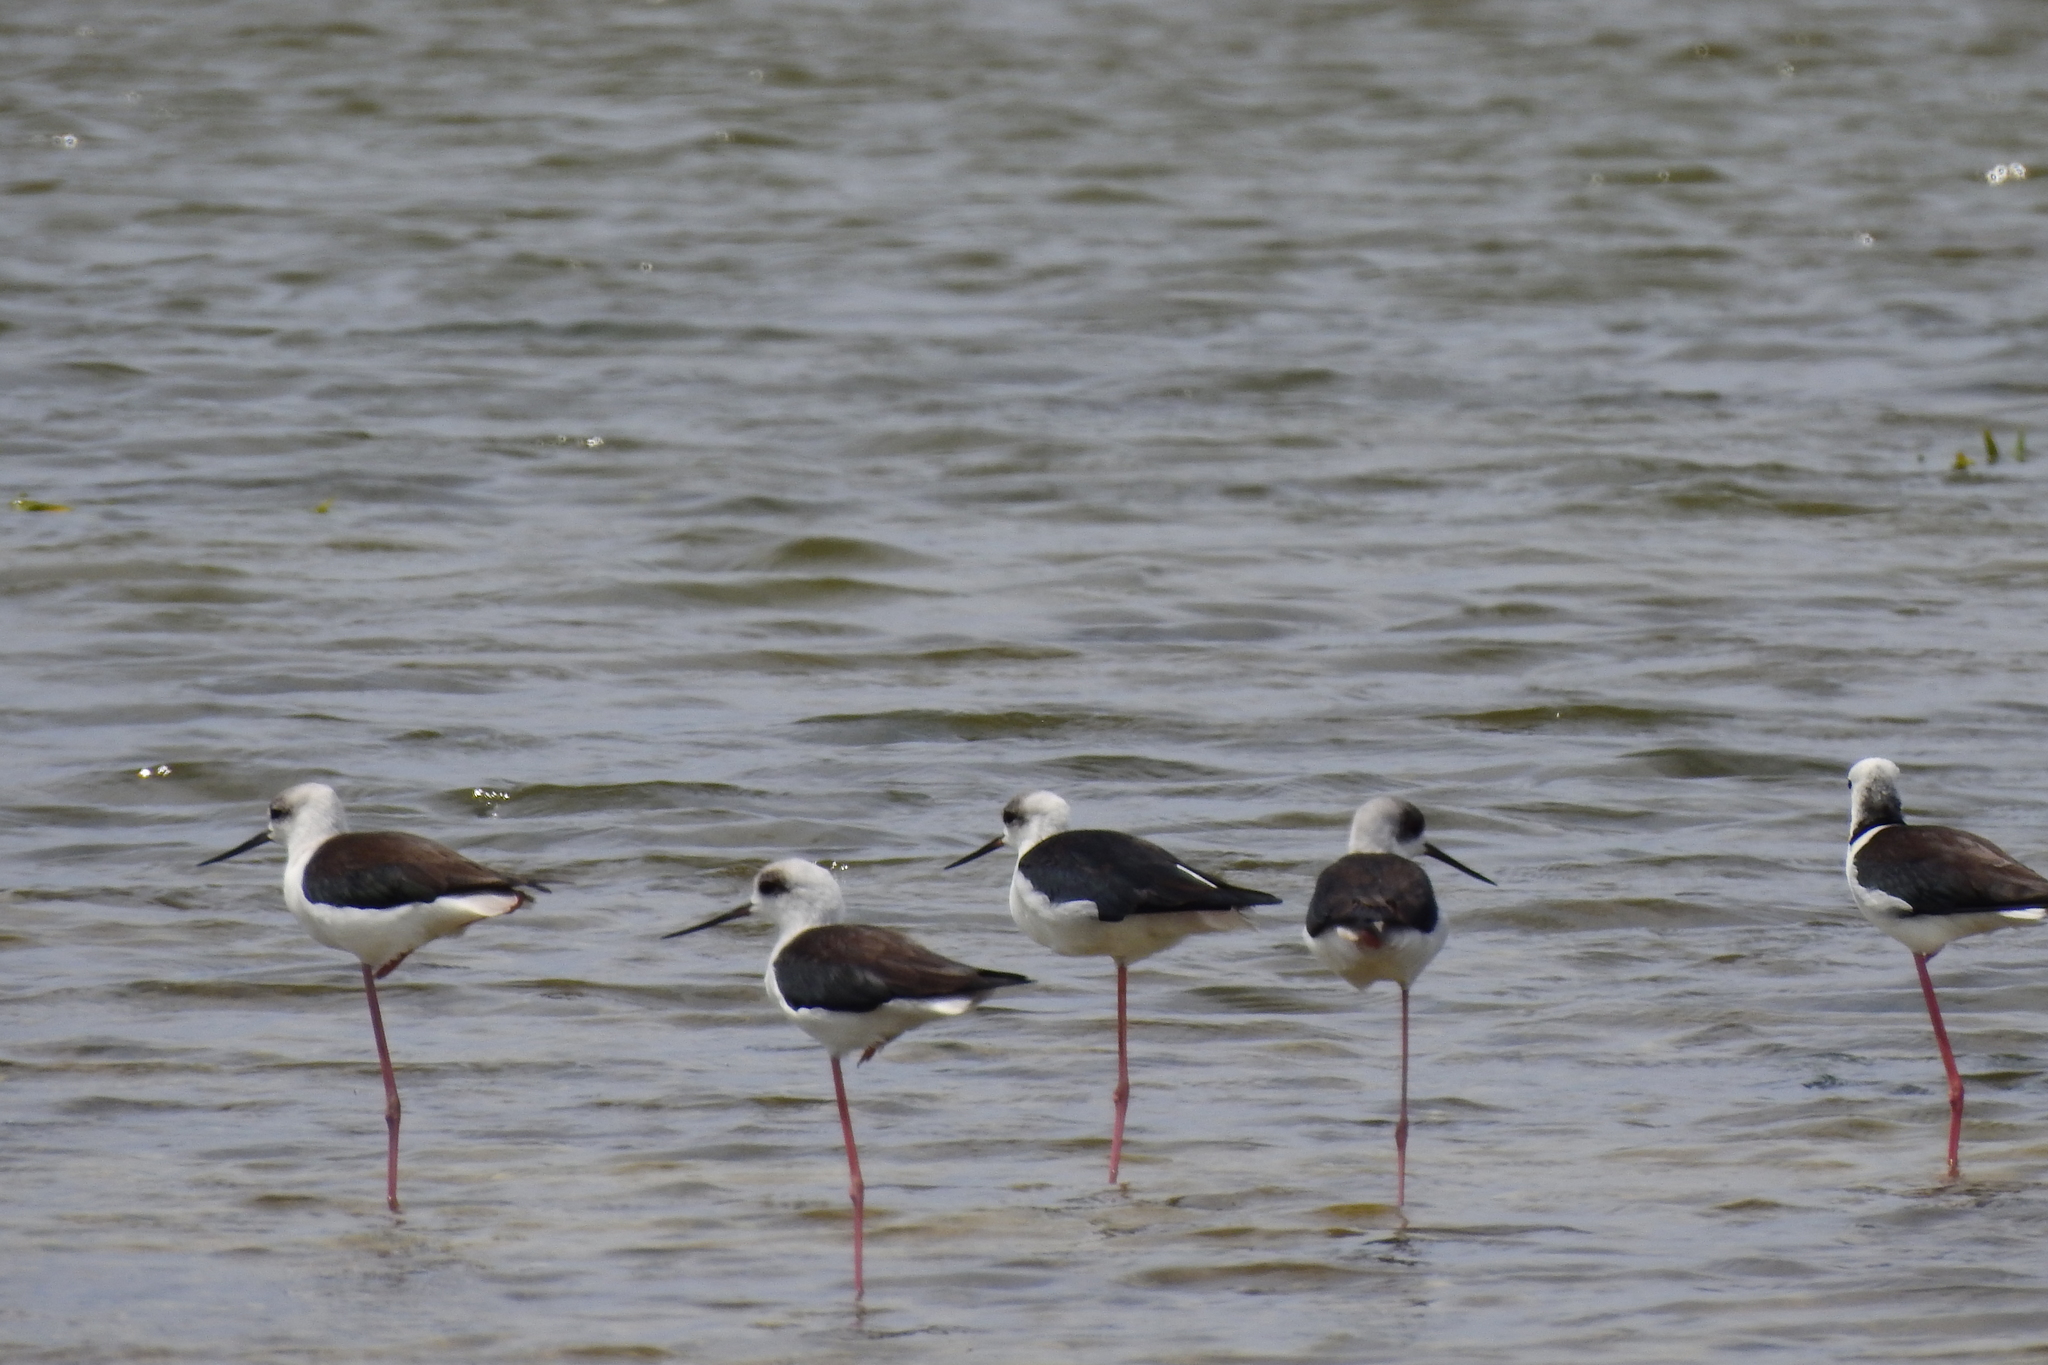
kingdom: Animalia
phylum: Chordata
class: Aves
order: Charadriiformes
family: Recurvirostridae
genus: Himantopus
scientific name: Himantopus leucocephalus
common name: White-headed stilt
